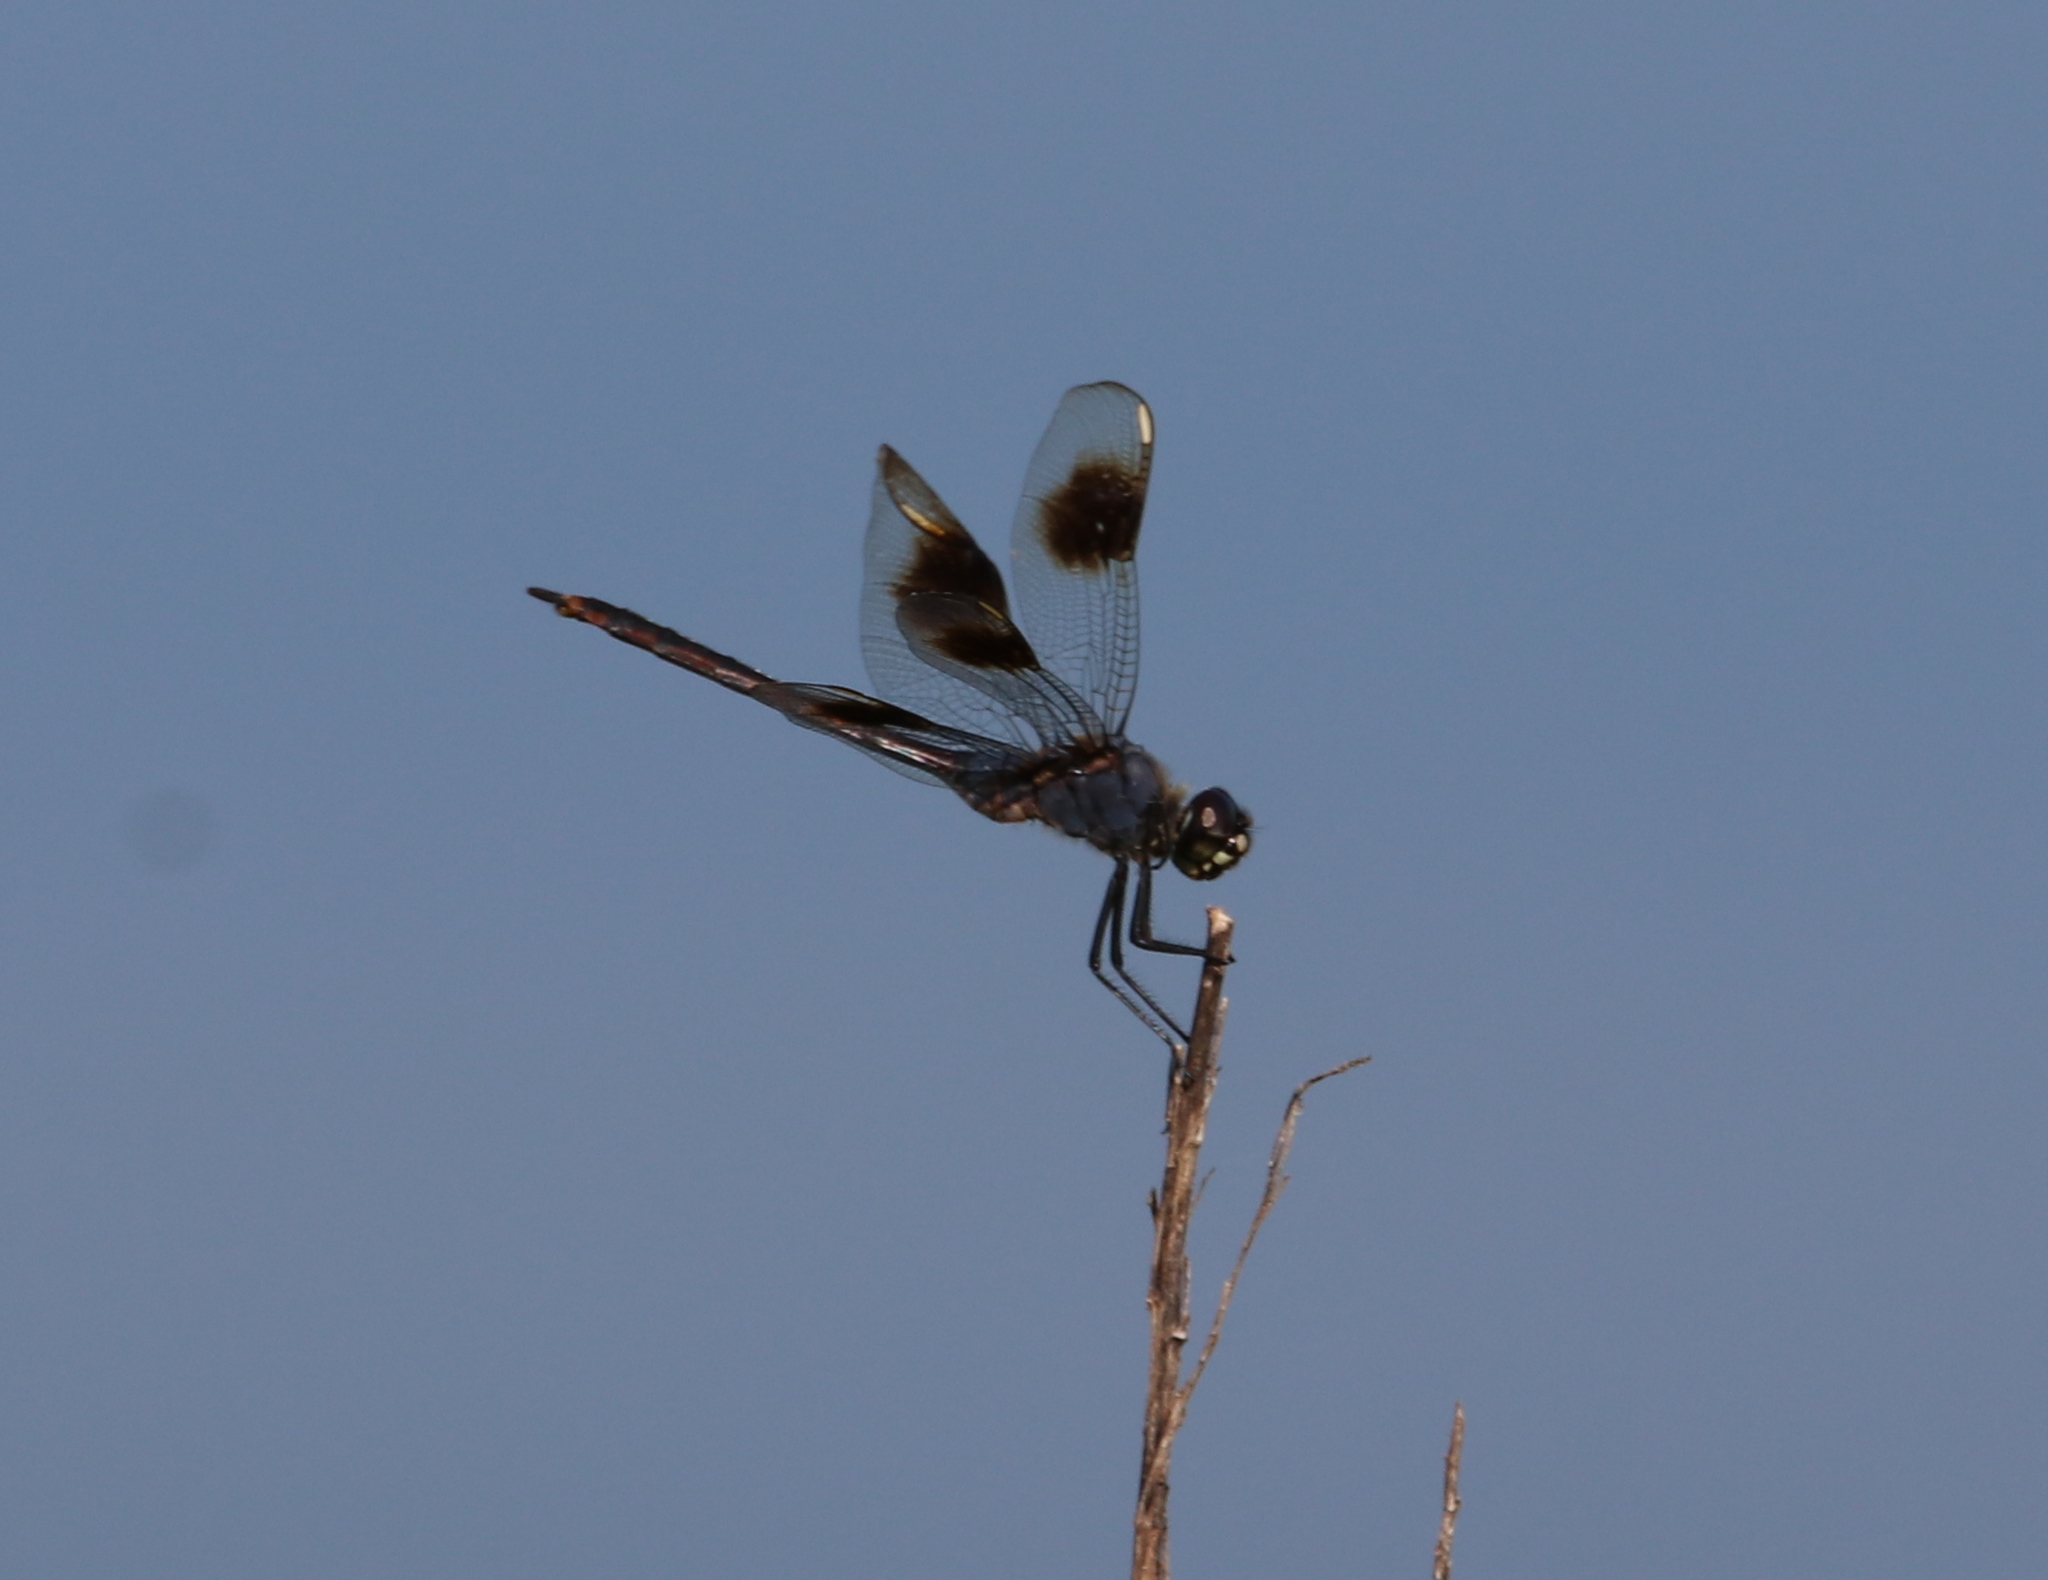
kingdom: Animalia
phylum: Arthropoda
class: Insecta
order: Odonata
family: Libellulidae
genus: Brachymesia
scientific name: Brachymesia gravida
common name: Four-spotted pennant
